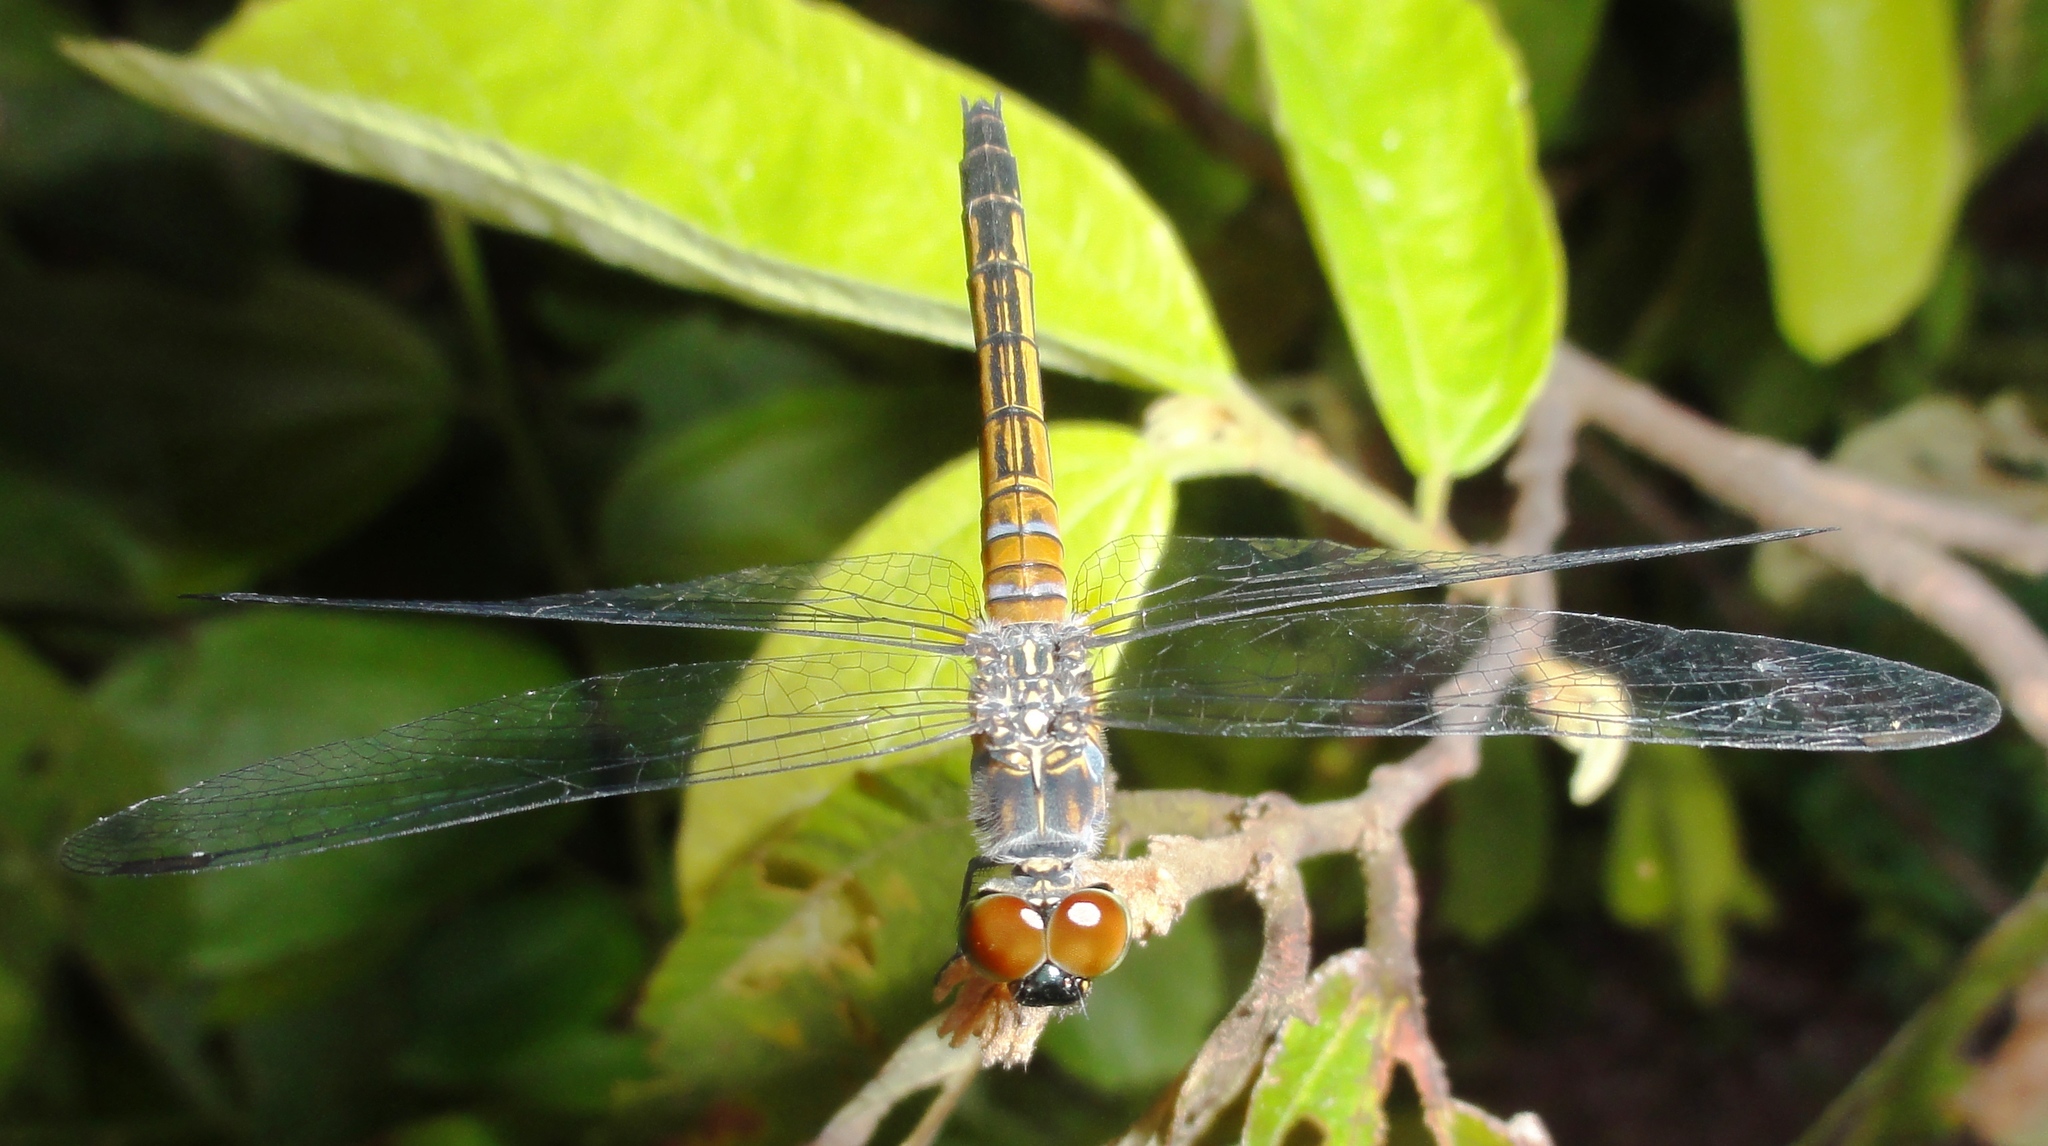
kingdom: Animalia
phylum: Arthropoda
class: Insecta
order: Odonata
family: Libellulidae
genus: Brachydiplax
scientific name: Brachydiplax chalybea
